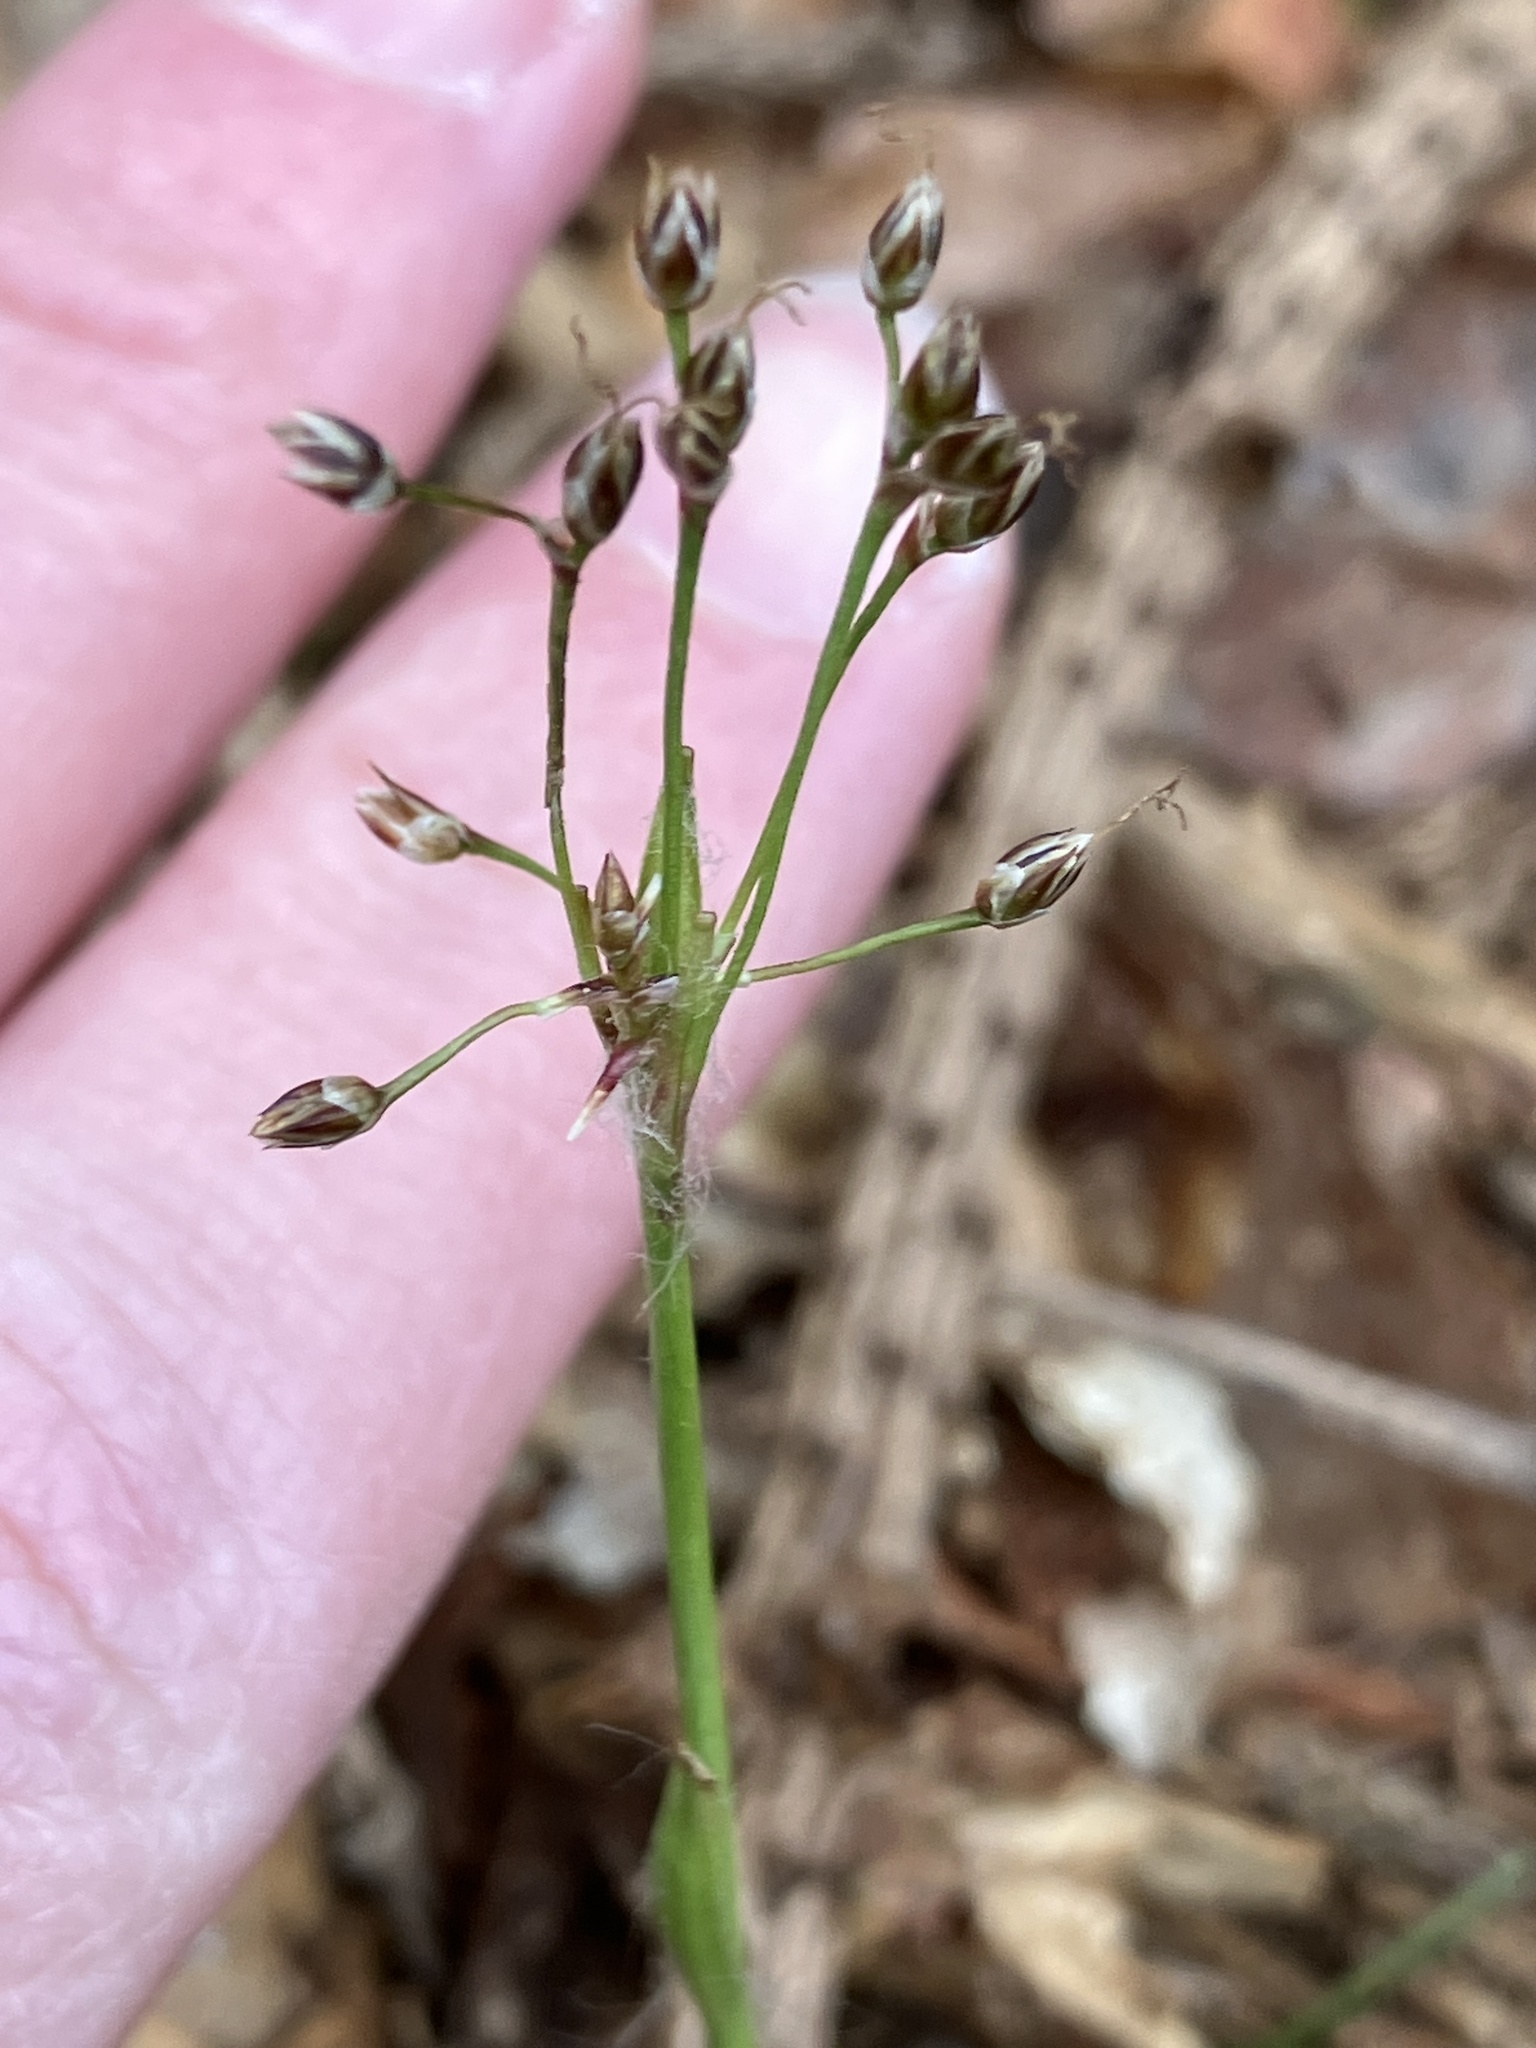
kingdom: Plantae
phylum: Tracheophyta
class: Liliopsida
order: Poales
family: Juncaceae
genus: Luzula
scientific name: Luzula pilosa
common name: Hairy wood-rush
